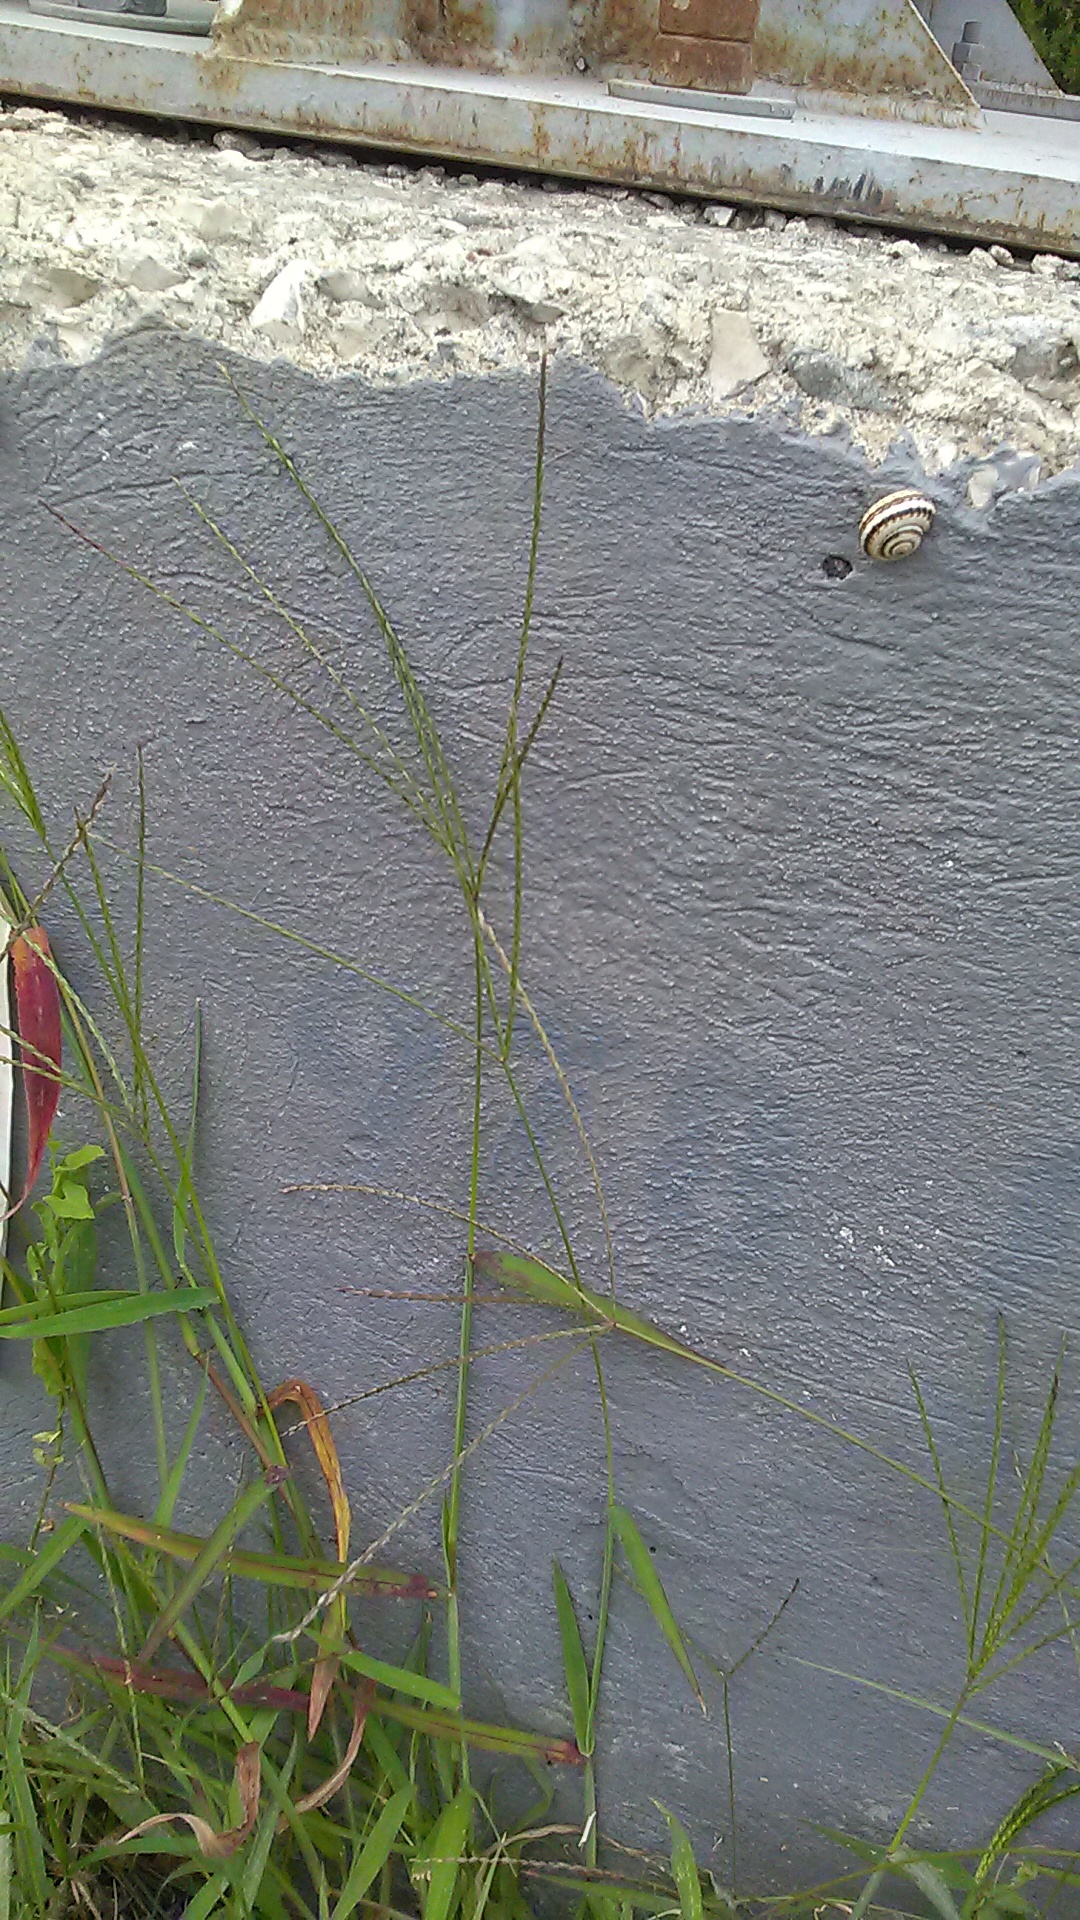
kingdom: Plantae
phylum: Tracheophyta
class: Magnoliopsida
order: Asterales
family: Asteraceae
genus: Echinops
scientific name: Echinops ritro
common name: Globe thistle
